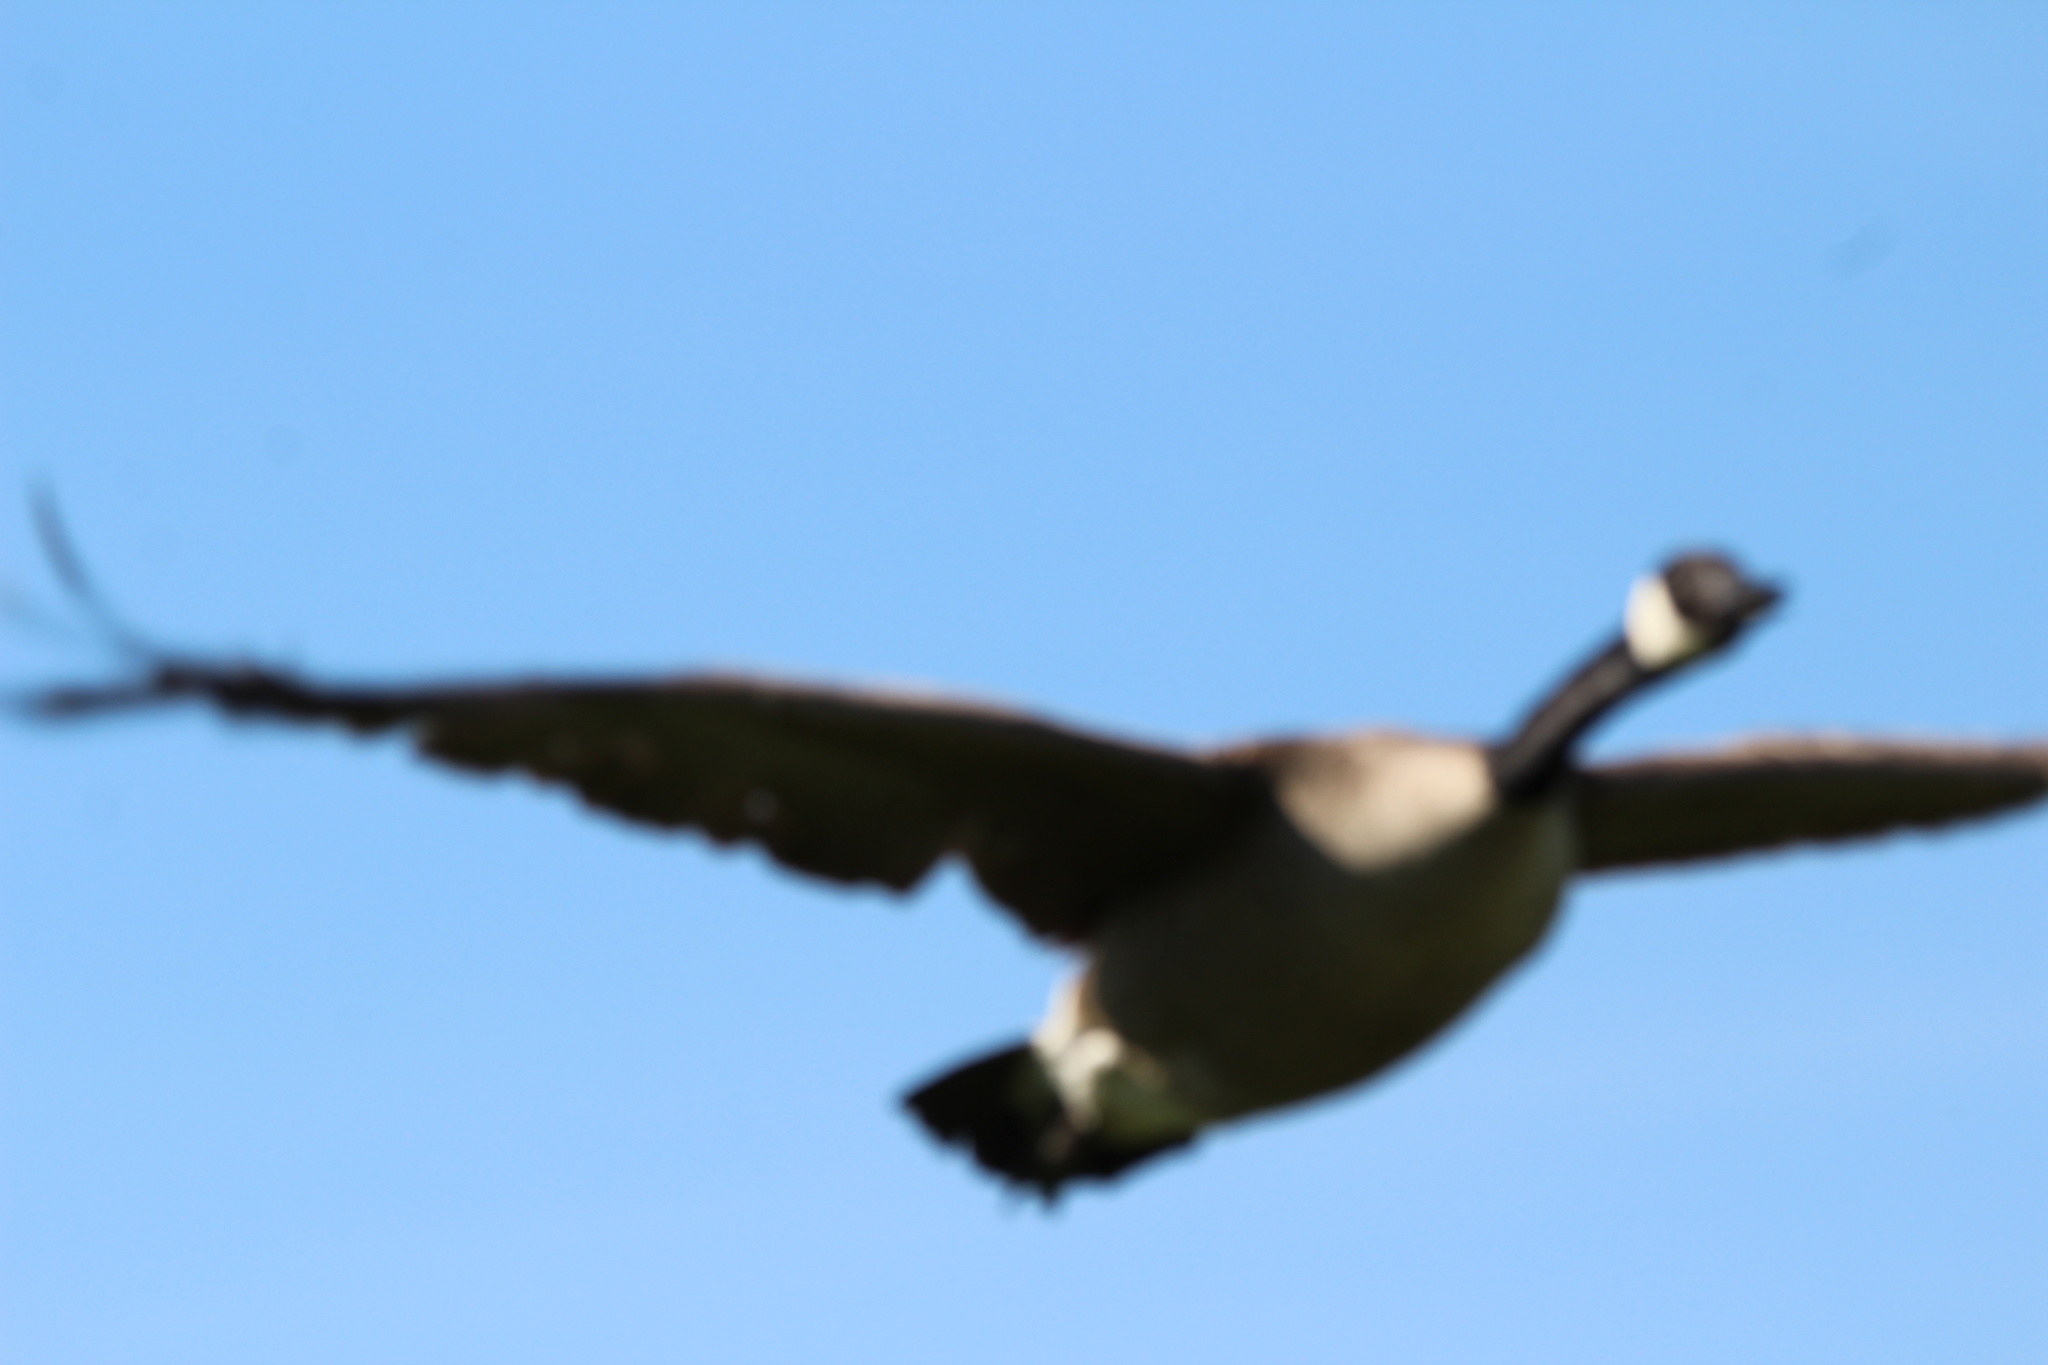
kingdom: Animalia
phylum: Chordata
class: Aves
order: Anseriformes
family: Anatidae
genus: Branta
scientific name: Branta canadensis
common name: Canada goose
